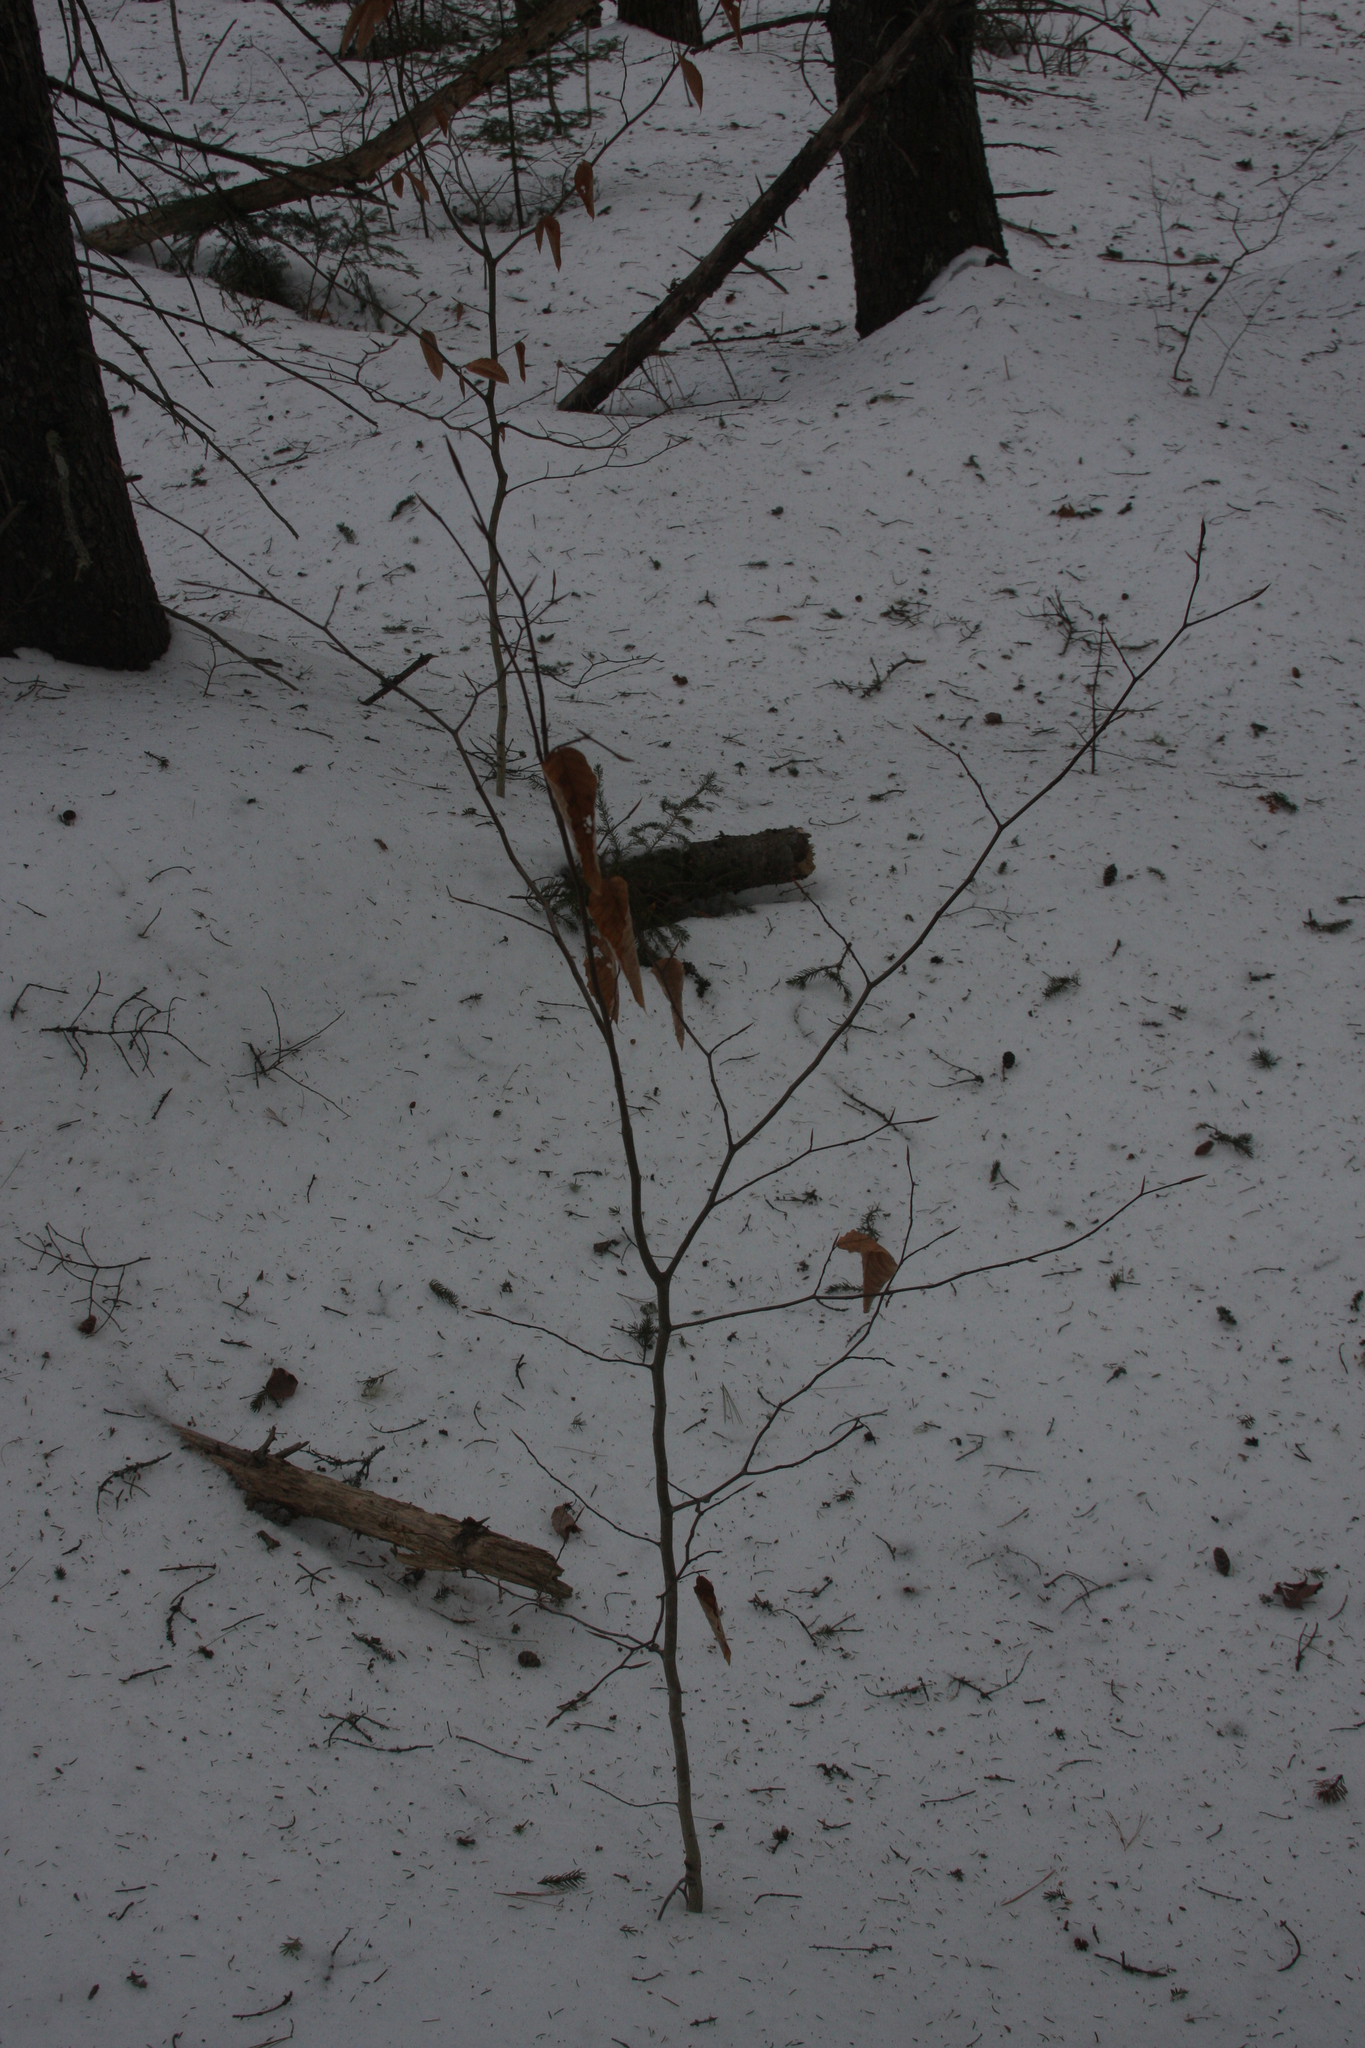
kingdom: Plantae
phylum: Tracheophyta
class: Magnoliopsida
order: Fagales
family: Fagaceae
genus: Fagus
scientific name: Fagus grandifolia
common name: American beech
